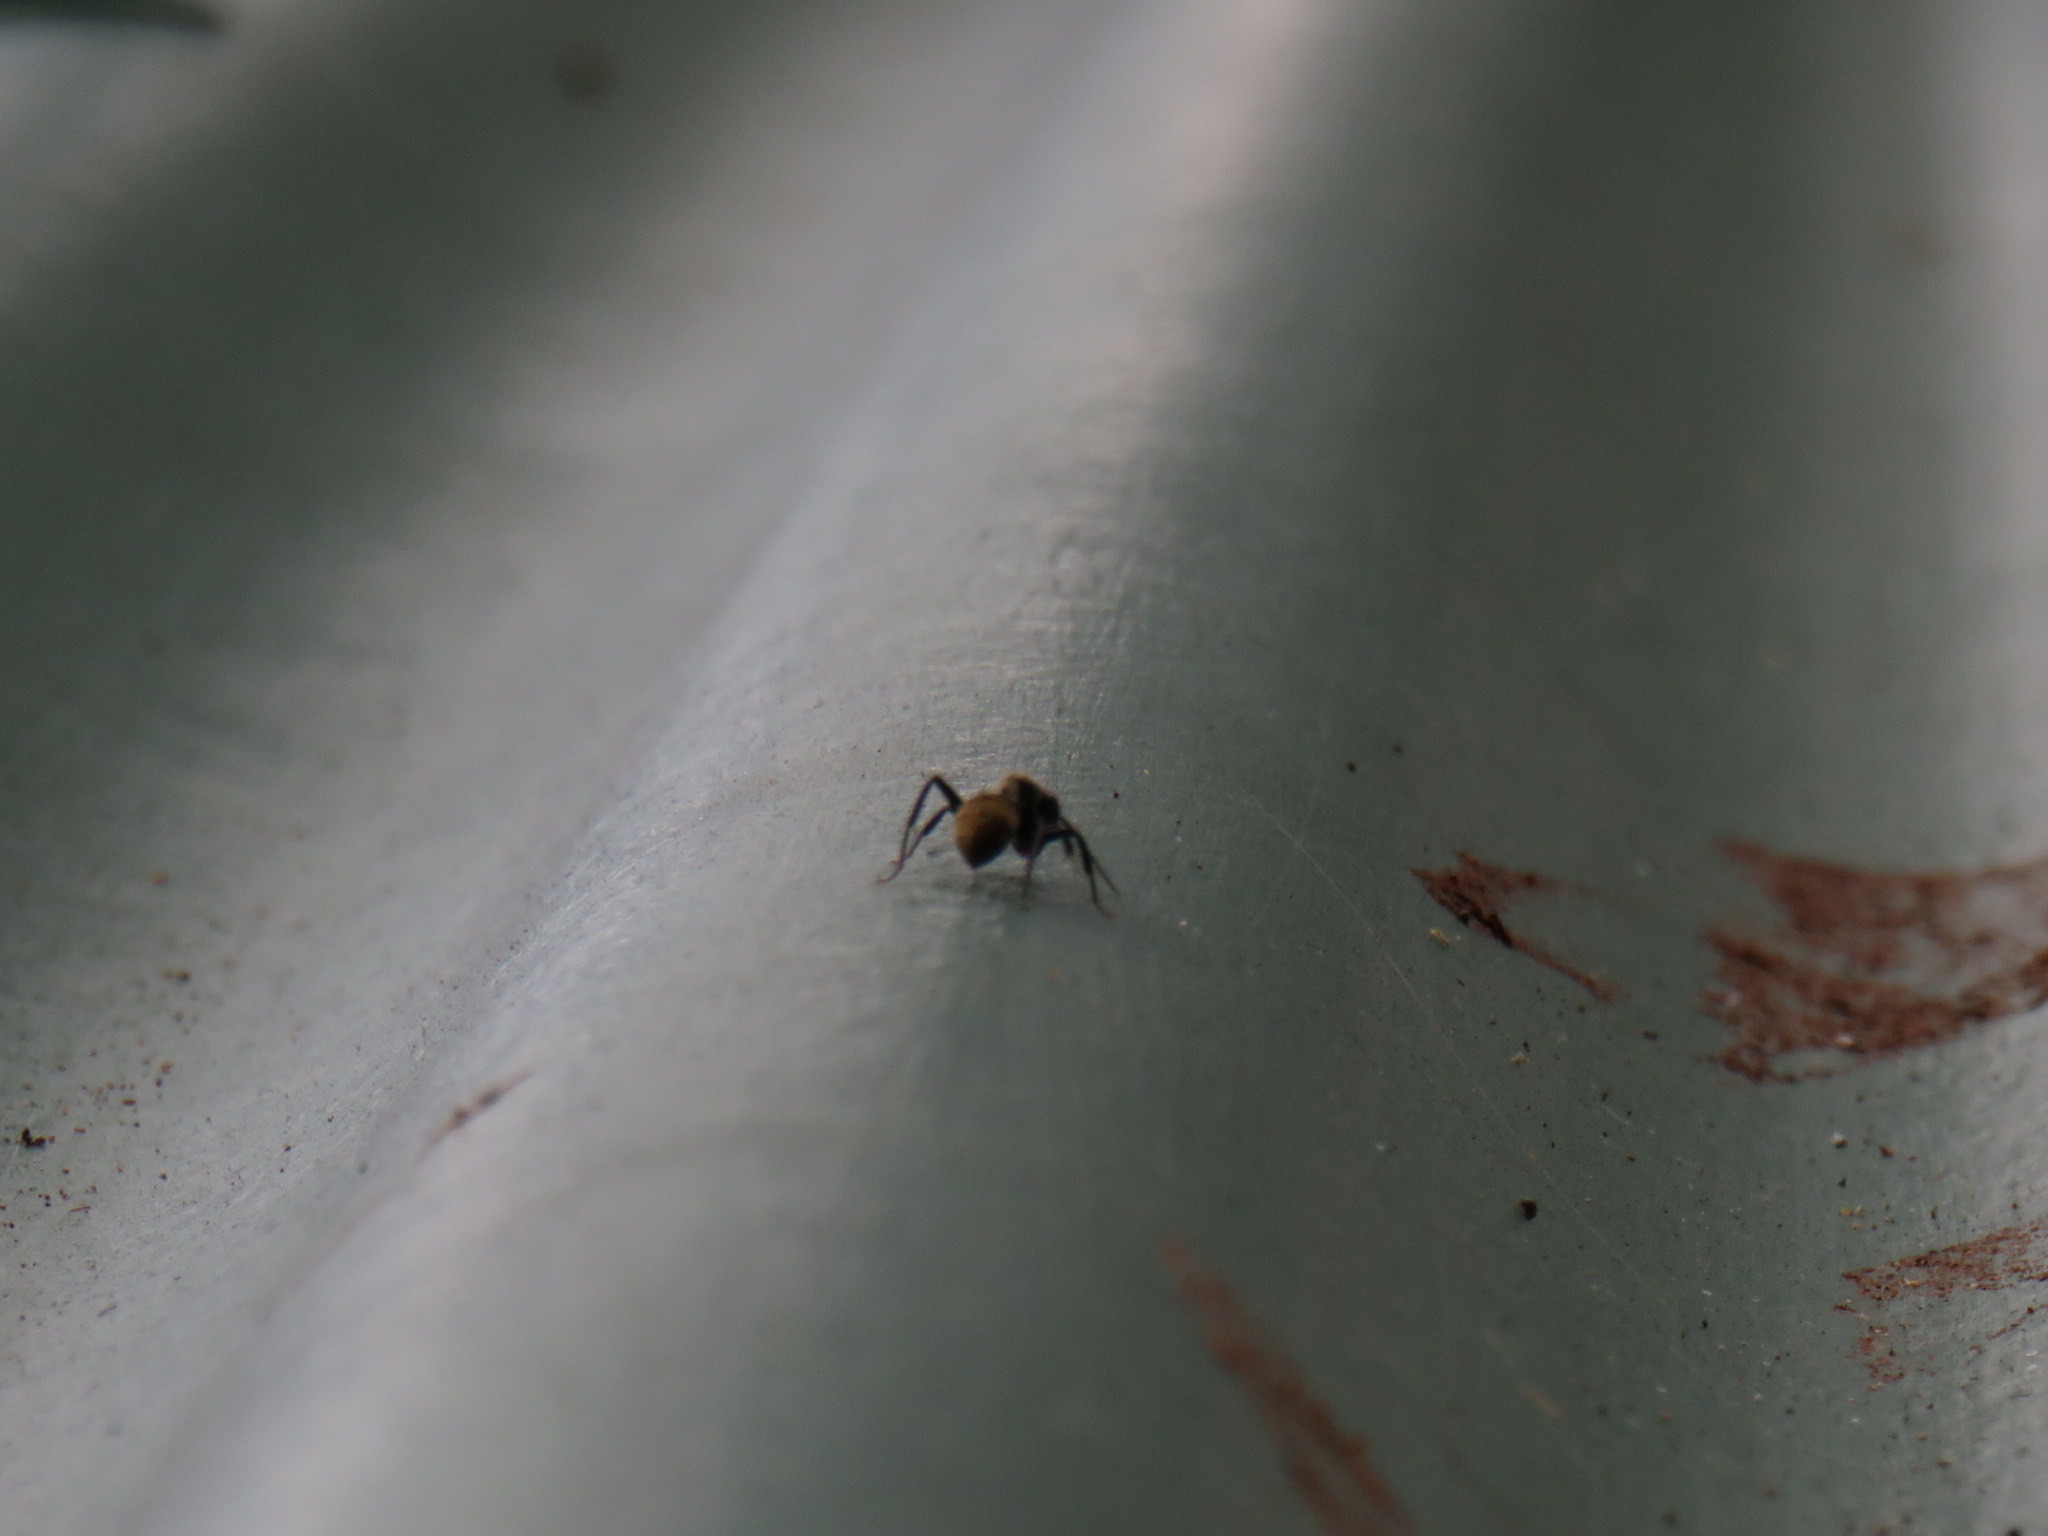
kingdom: Animalia
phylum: Arthropoda
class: Insecta
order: Hymenoptera
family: Formicidae
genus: Camponotus
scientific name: Camponotus olivieri
